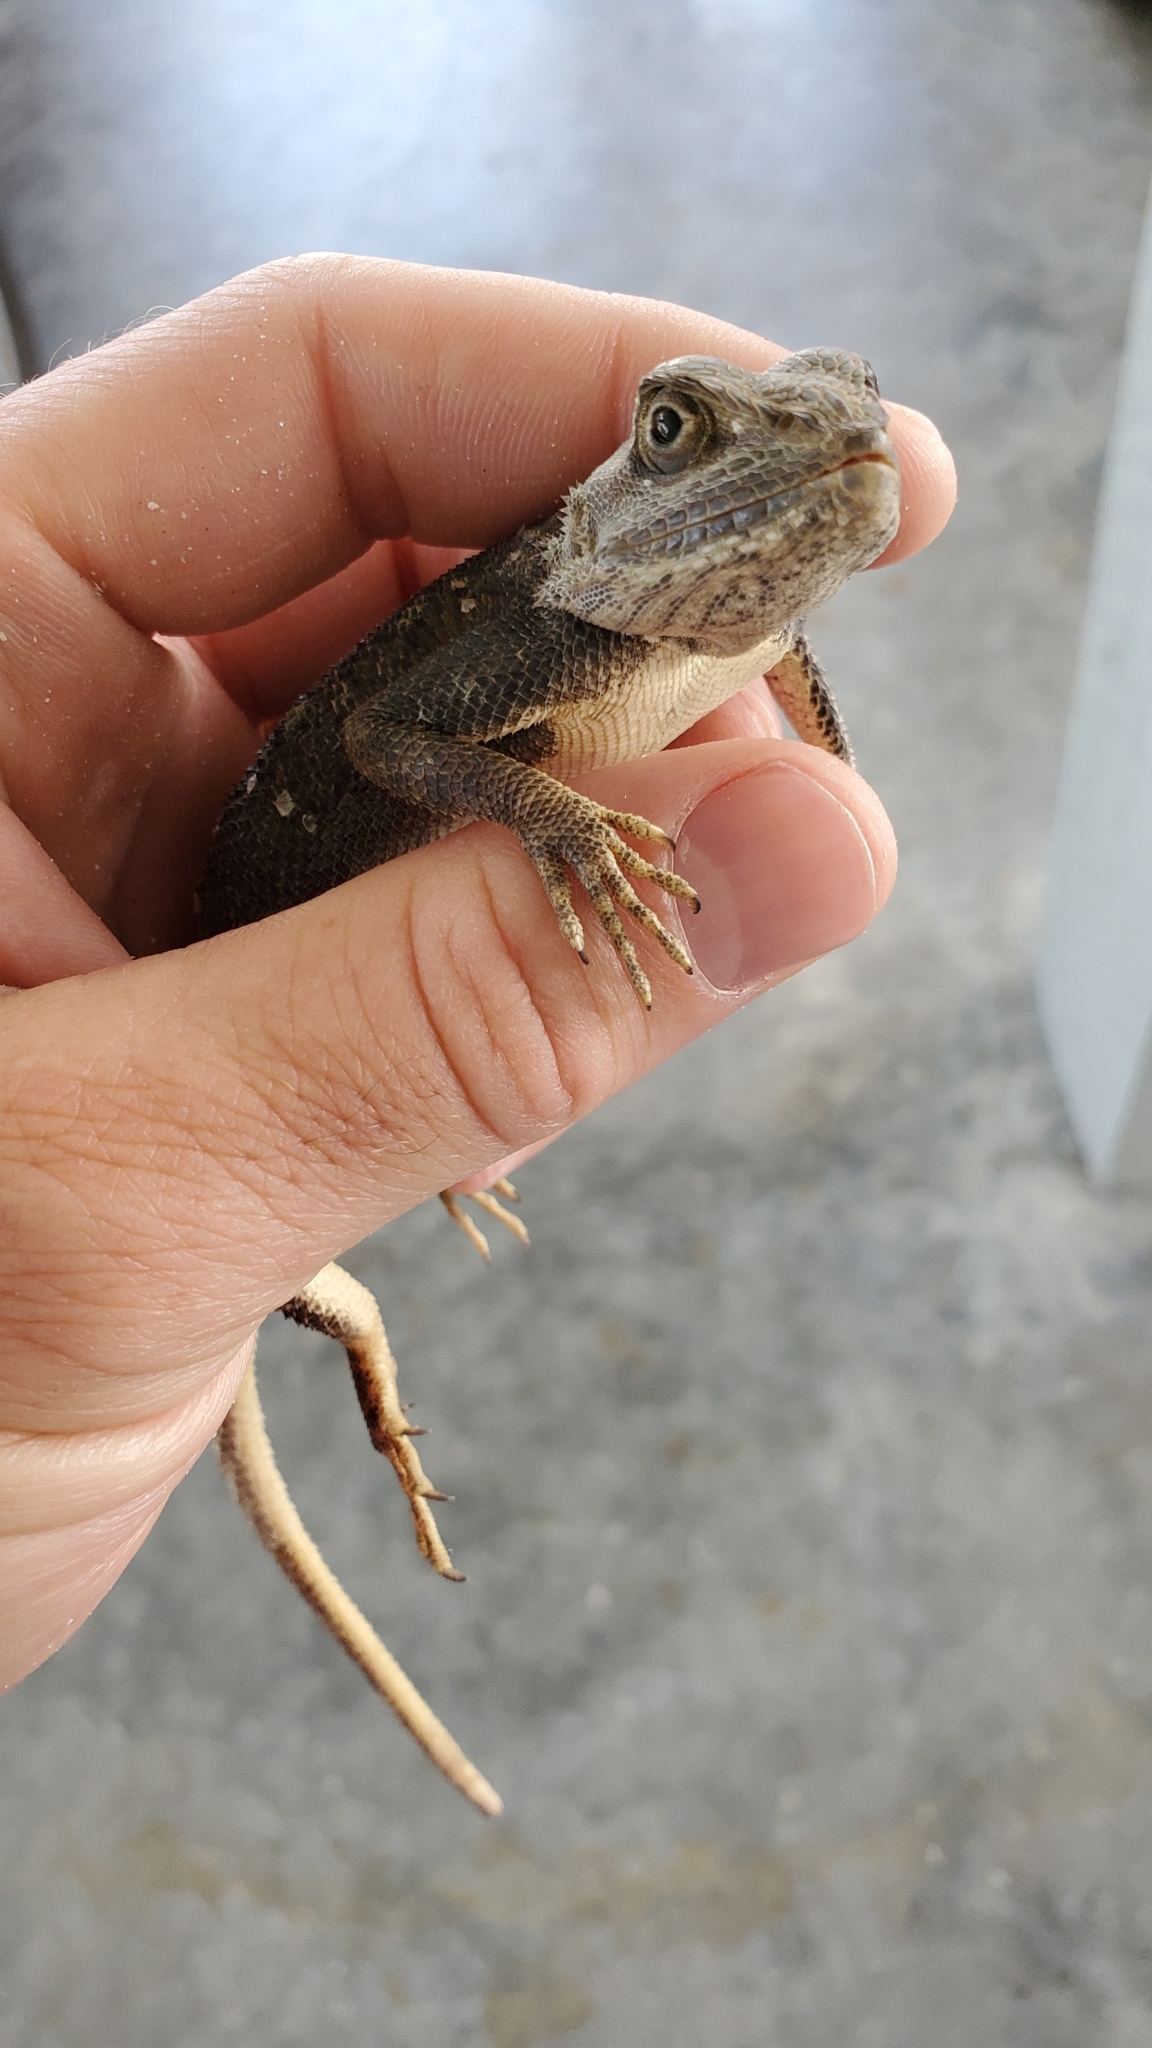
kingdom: Animalia
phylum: Chordata
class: Squamata
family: Agamidae
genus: Agama
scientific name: Agama picticauda
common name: Red-headed agama
